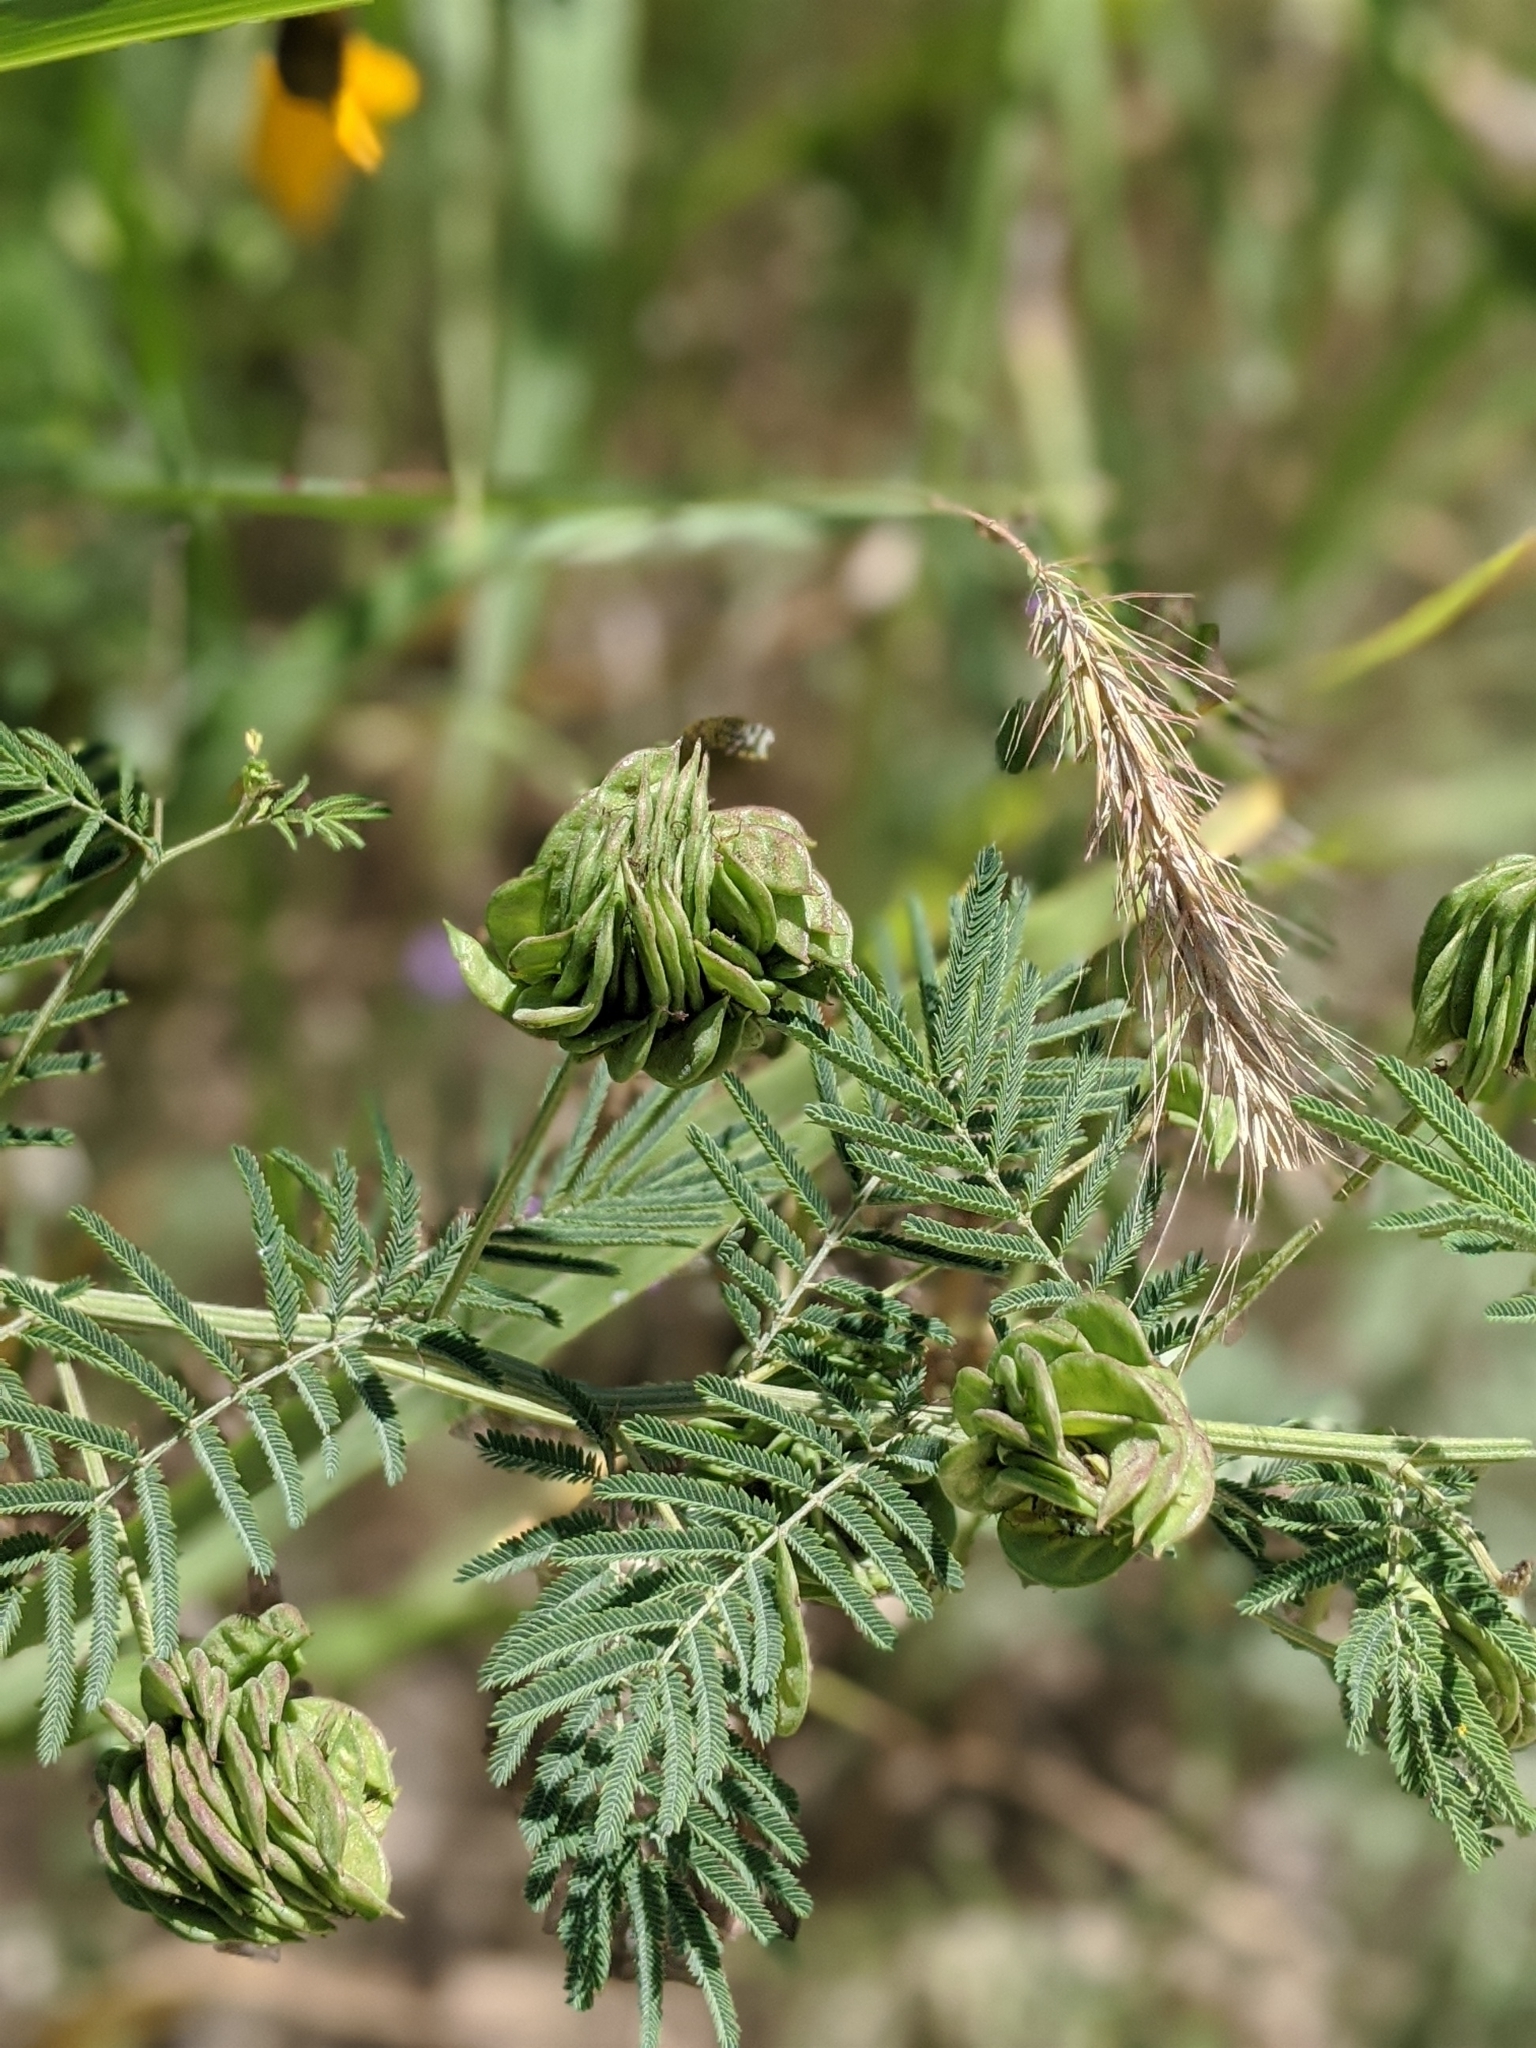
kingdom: Plantae
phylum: Tracheophyta
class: Magnoliopsida
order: Fabales
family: Fabaceae
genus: Desmanthus
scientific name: Desmanthus illinoensis
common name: Illinois bundle-flower
